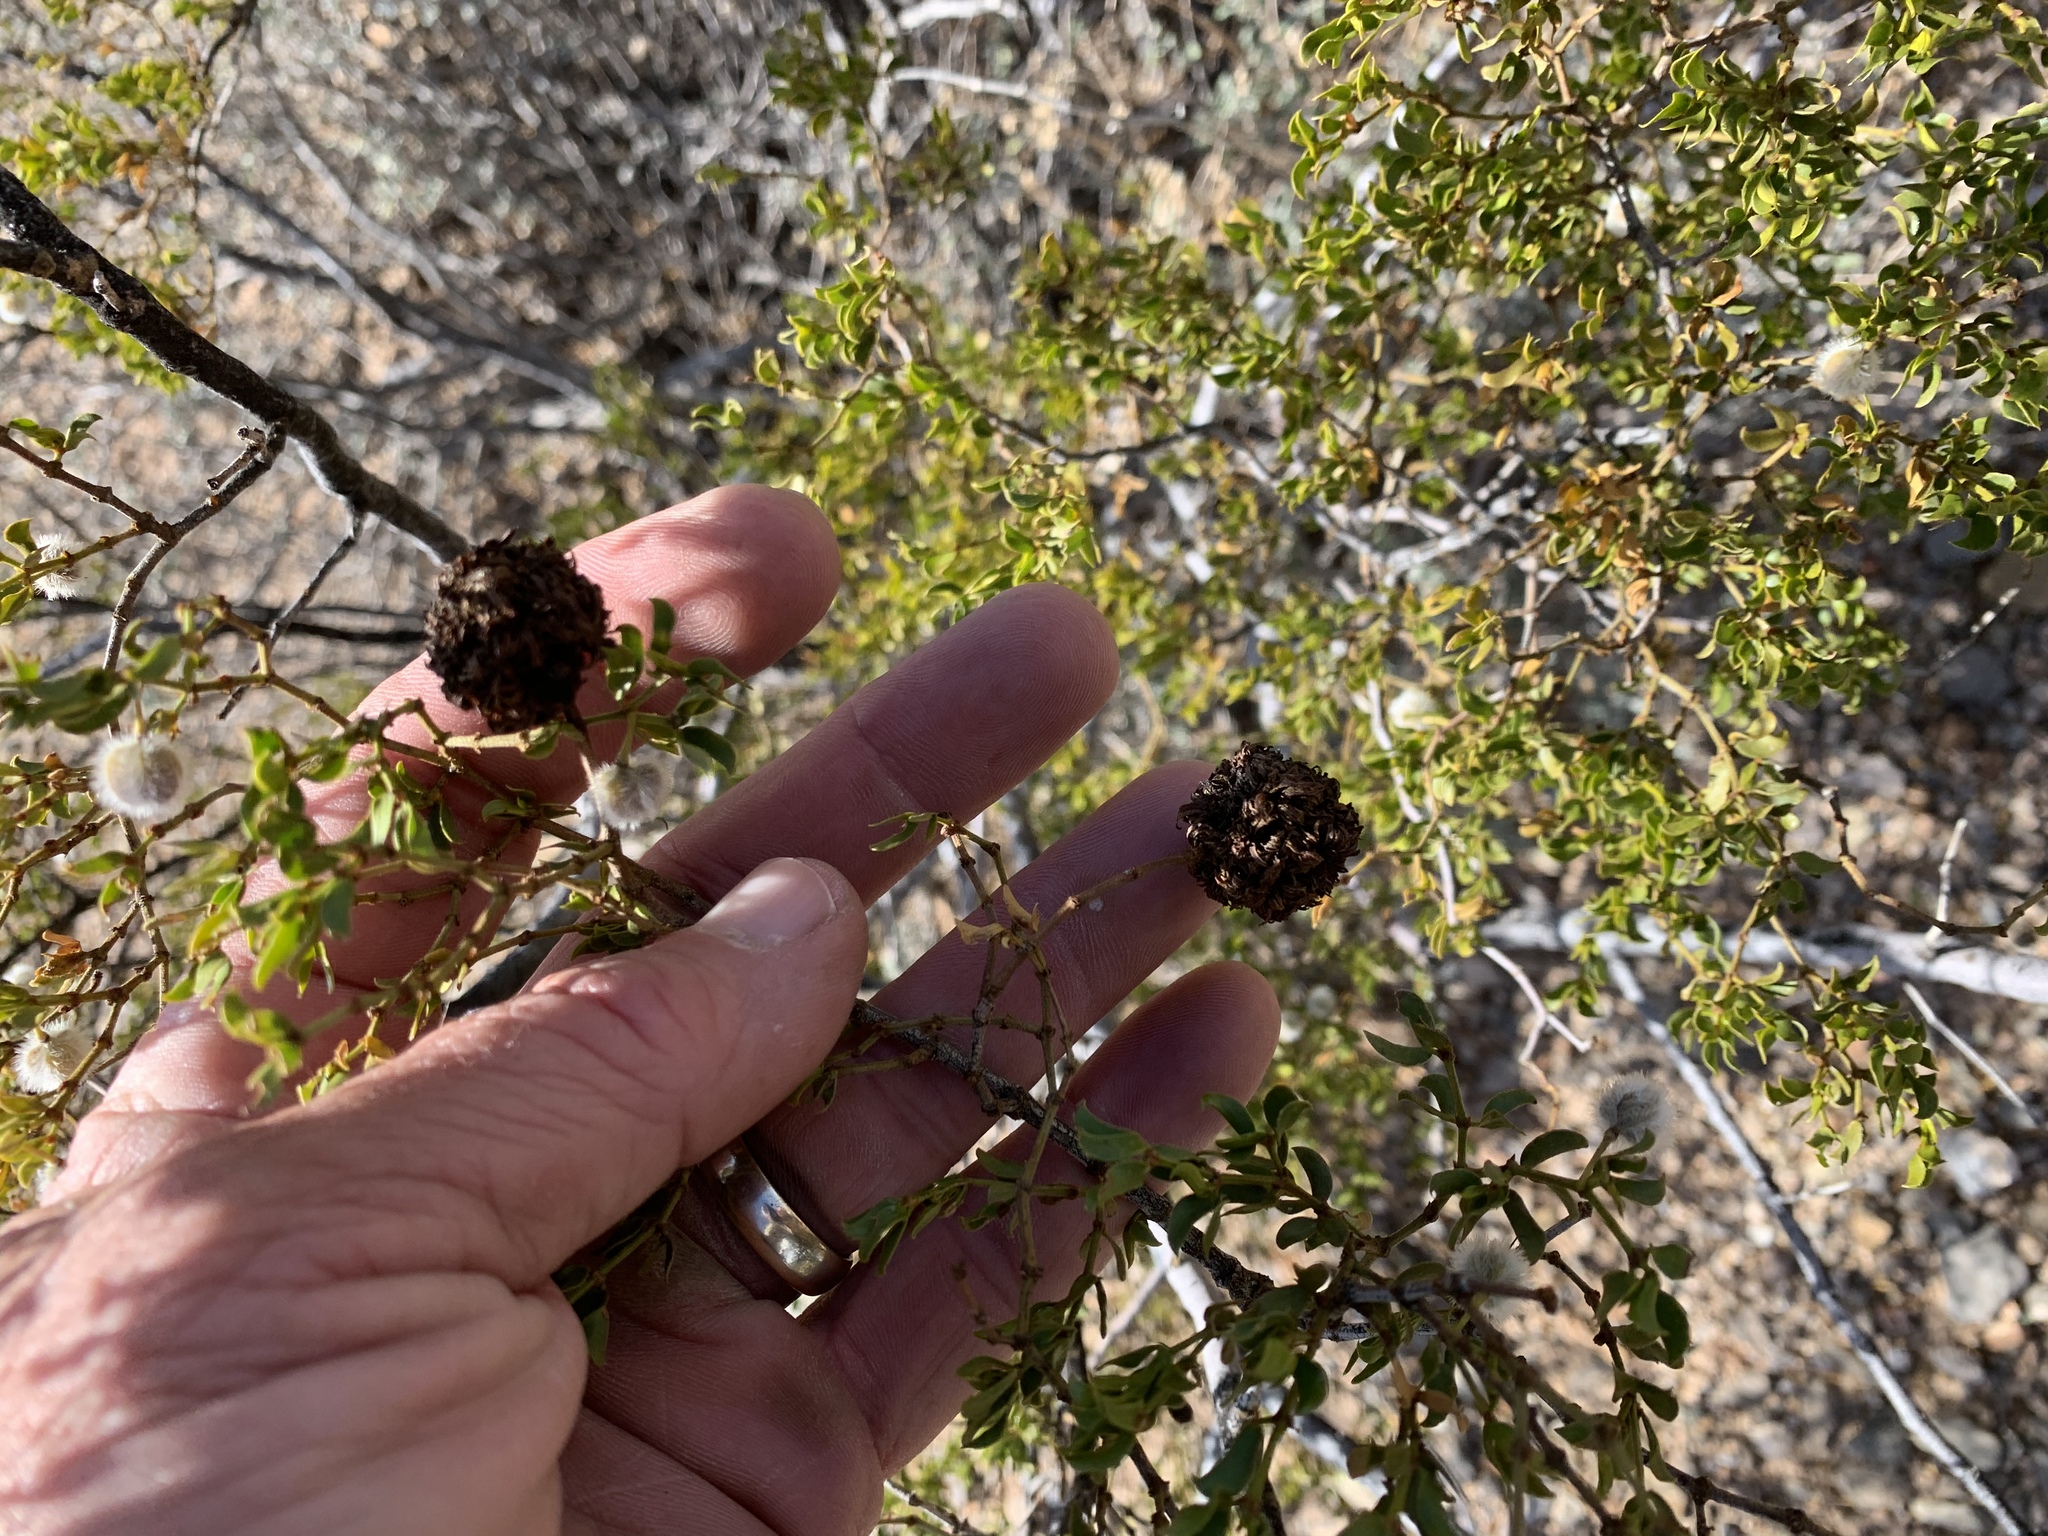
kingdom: Animalia
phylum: Arthropoda
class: Insecta
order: Diptera
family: Cecidomyiidae
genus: Asphondylia
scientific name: Asphondylia auripila
